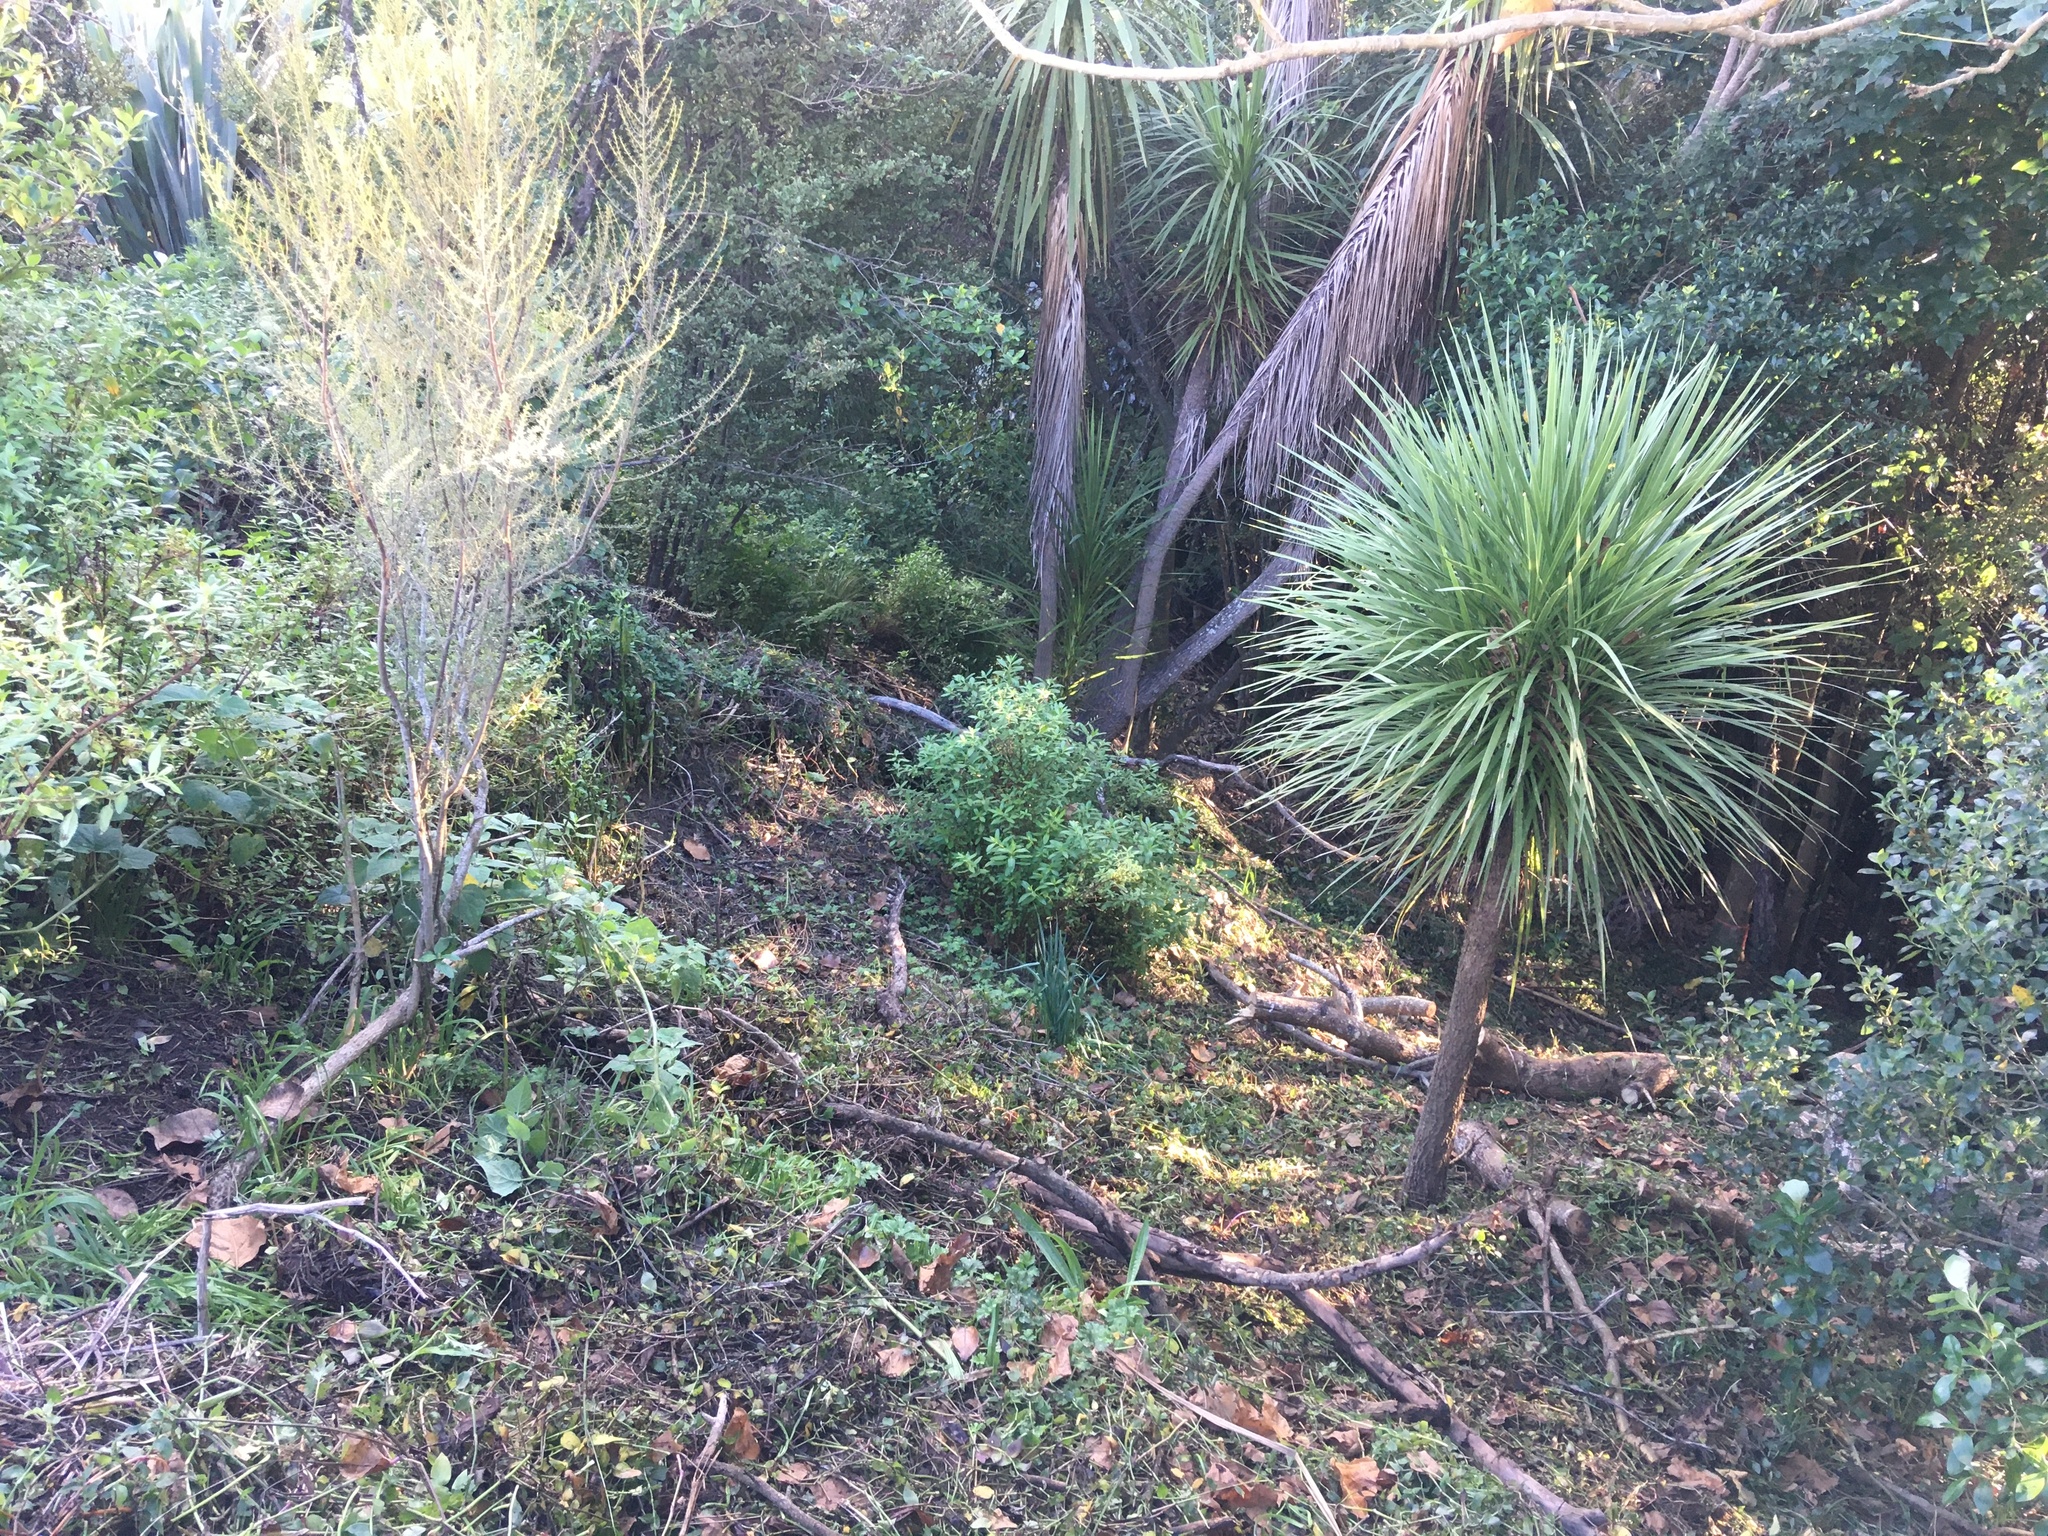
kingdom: Plantae
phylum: Tracheophyta
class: Liliopsida
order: Asparagales
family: Asparagaceae
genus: Cordyline
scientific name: Cordyline australis
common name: Cabbage-palm
